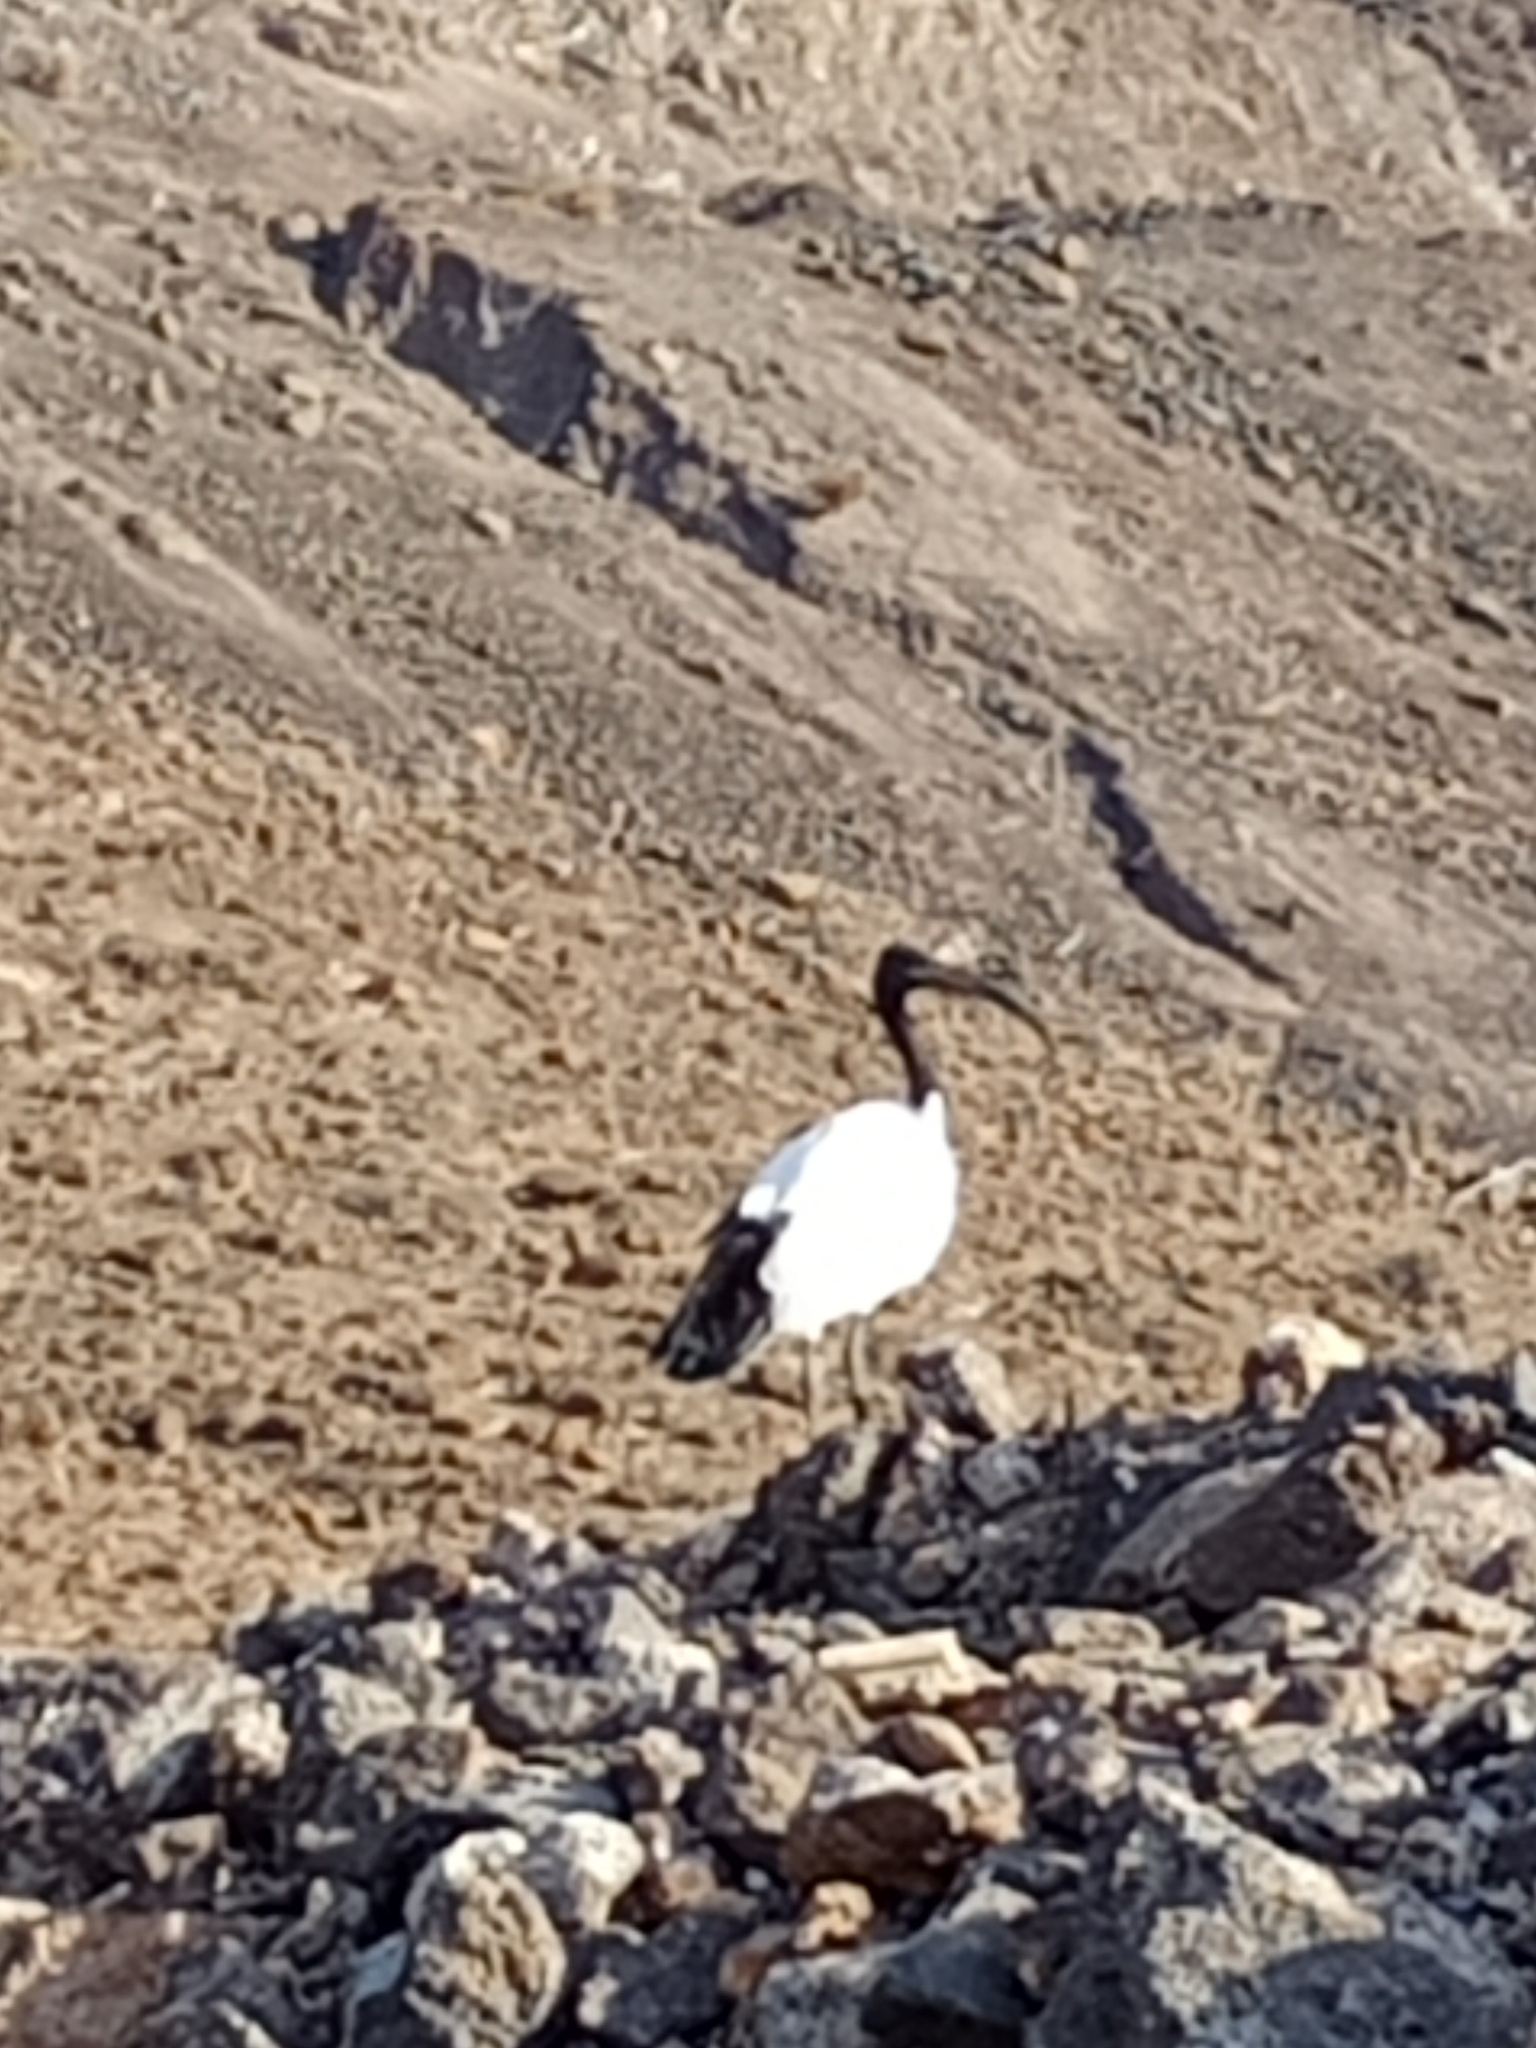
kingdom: Animalia
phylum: Chordata
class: Aves
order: Pelecaniformes
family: Threskiornithidae
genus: Threskiornis
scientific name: Threskiornis aethiopicus
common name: Sacred ibis
